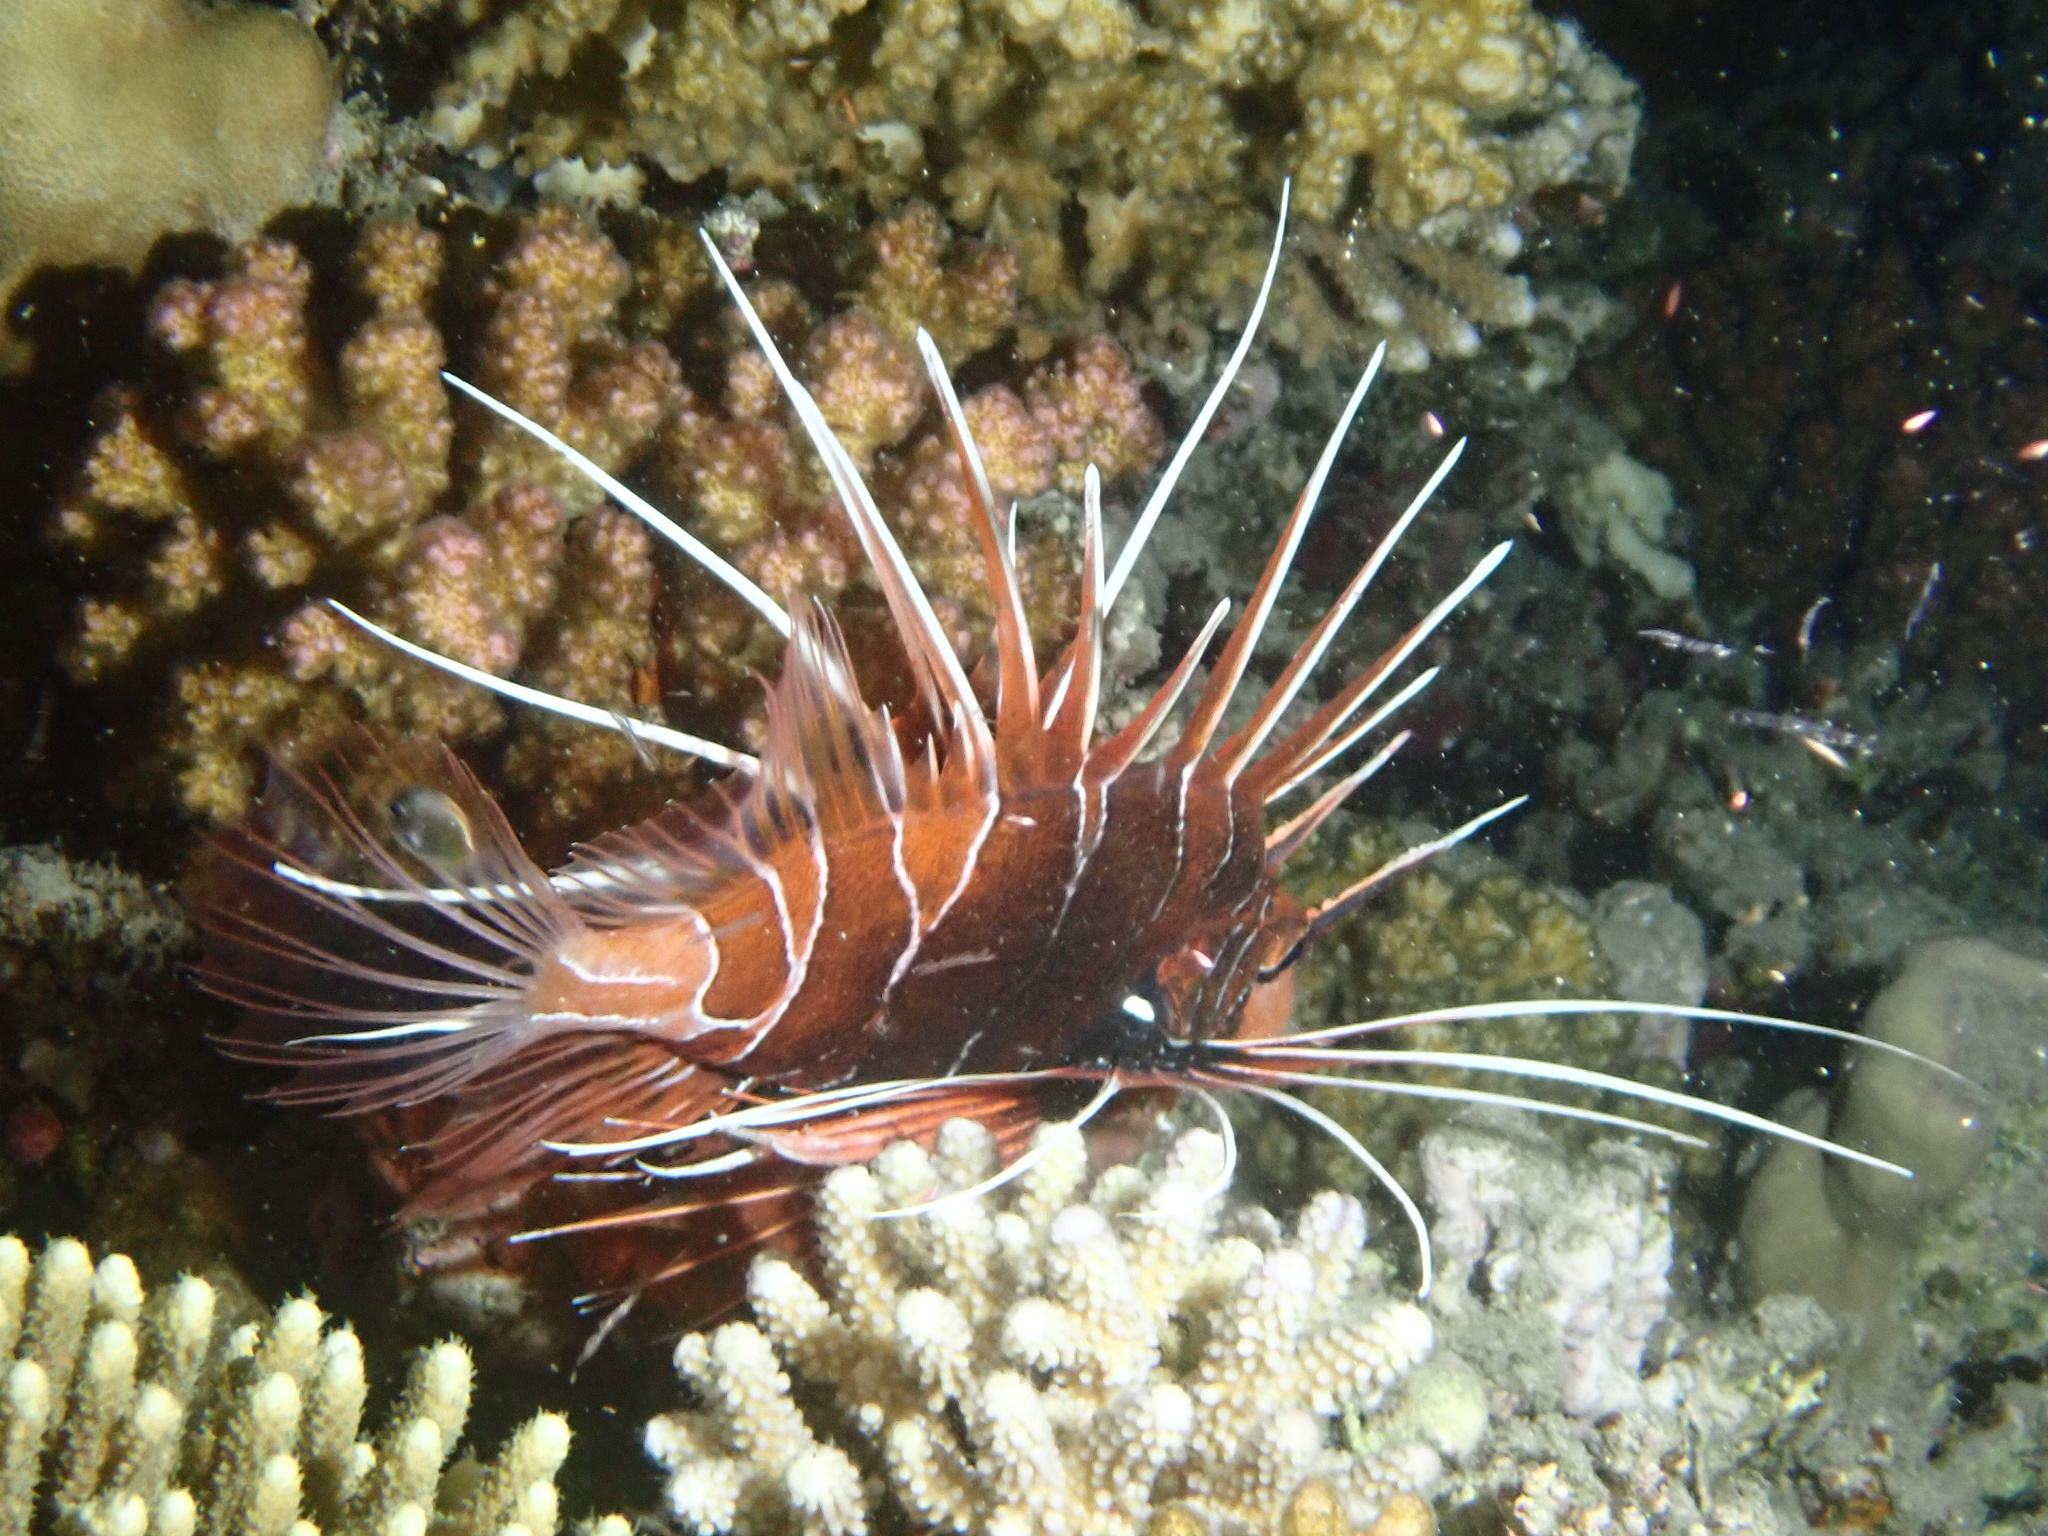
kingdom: Animalia
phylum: Chordata
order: Scorpaeniformes
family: Scorpaenidae
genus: Pterois
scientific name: Pterois cincta
